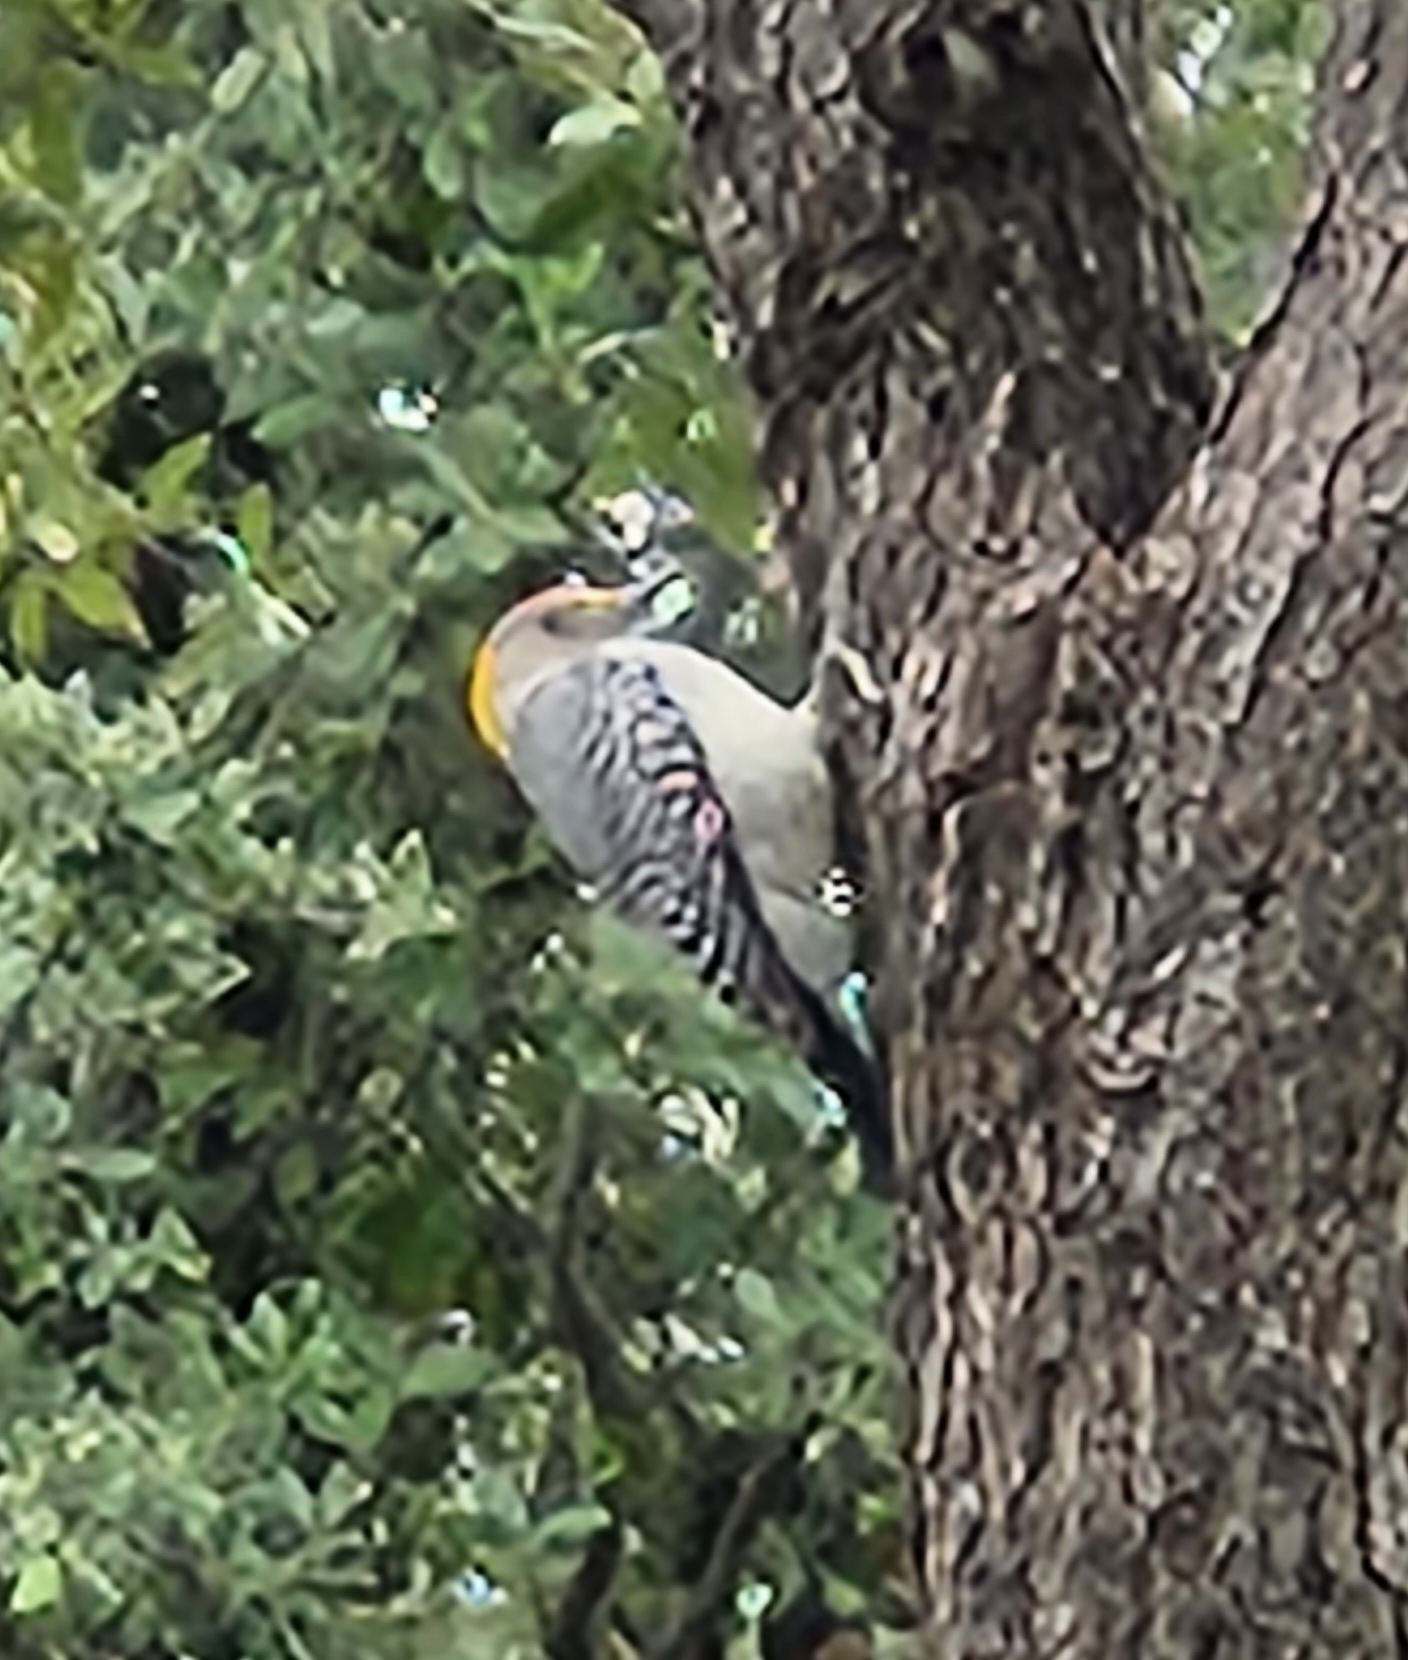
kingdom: Animalia
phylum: Chordata
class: Aves
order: Piciformes
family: Picidae
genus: Melanerpes
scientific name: Melanerpes aurifrons
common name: Golden-fronted woodpecker
